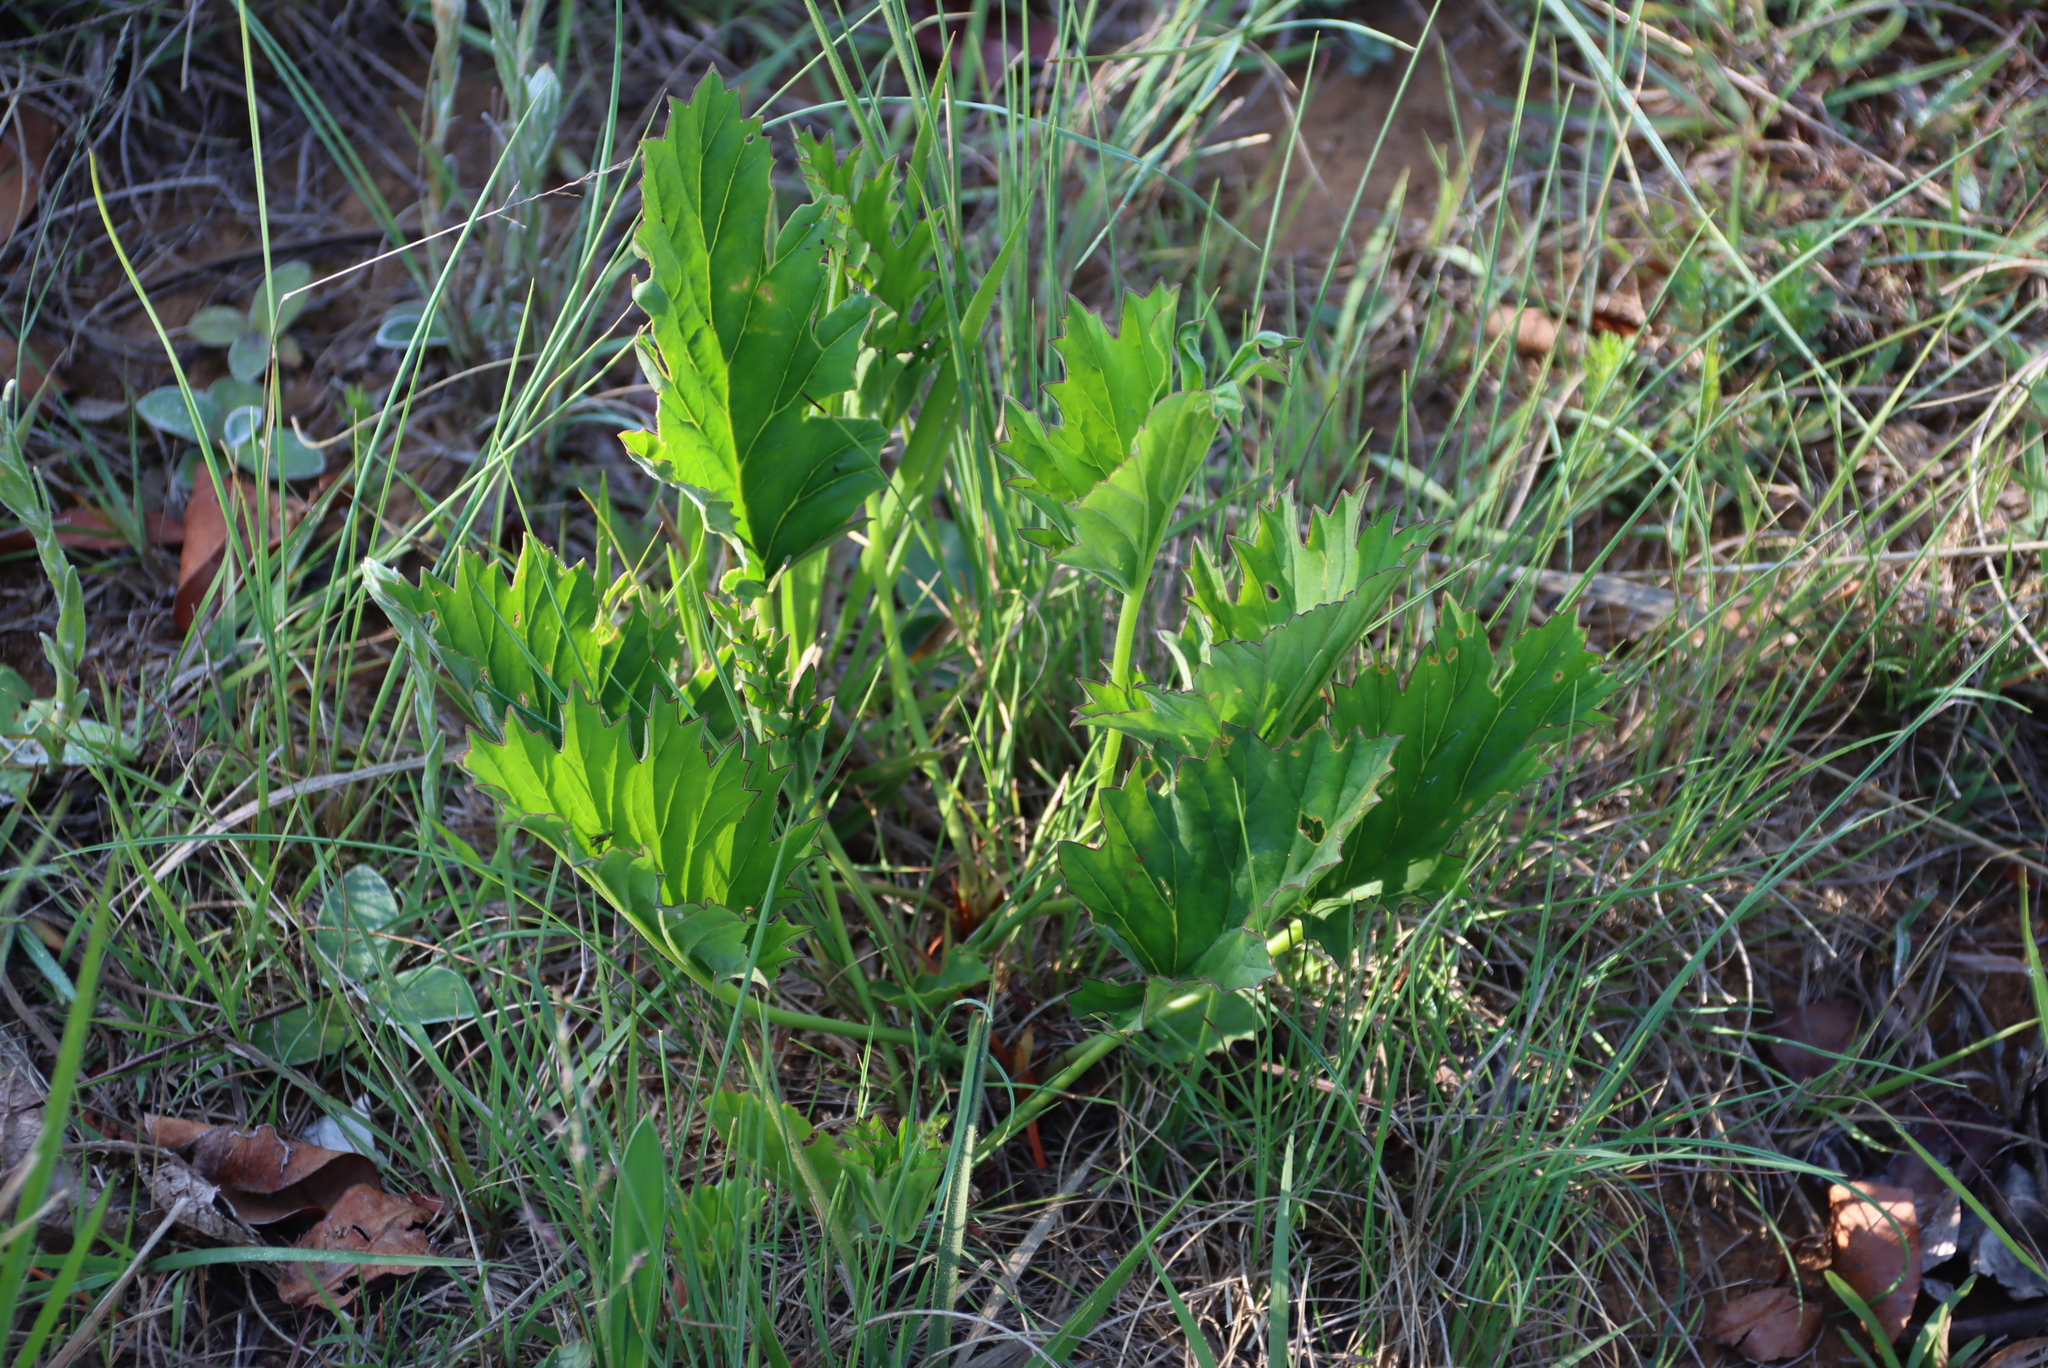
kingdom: Plantae
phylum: Tracheophyta
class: Magnoliopsida
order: Geraniales
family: Geraniaceae
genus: Pelargonium
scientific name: Pelargonium luridum
